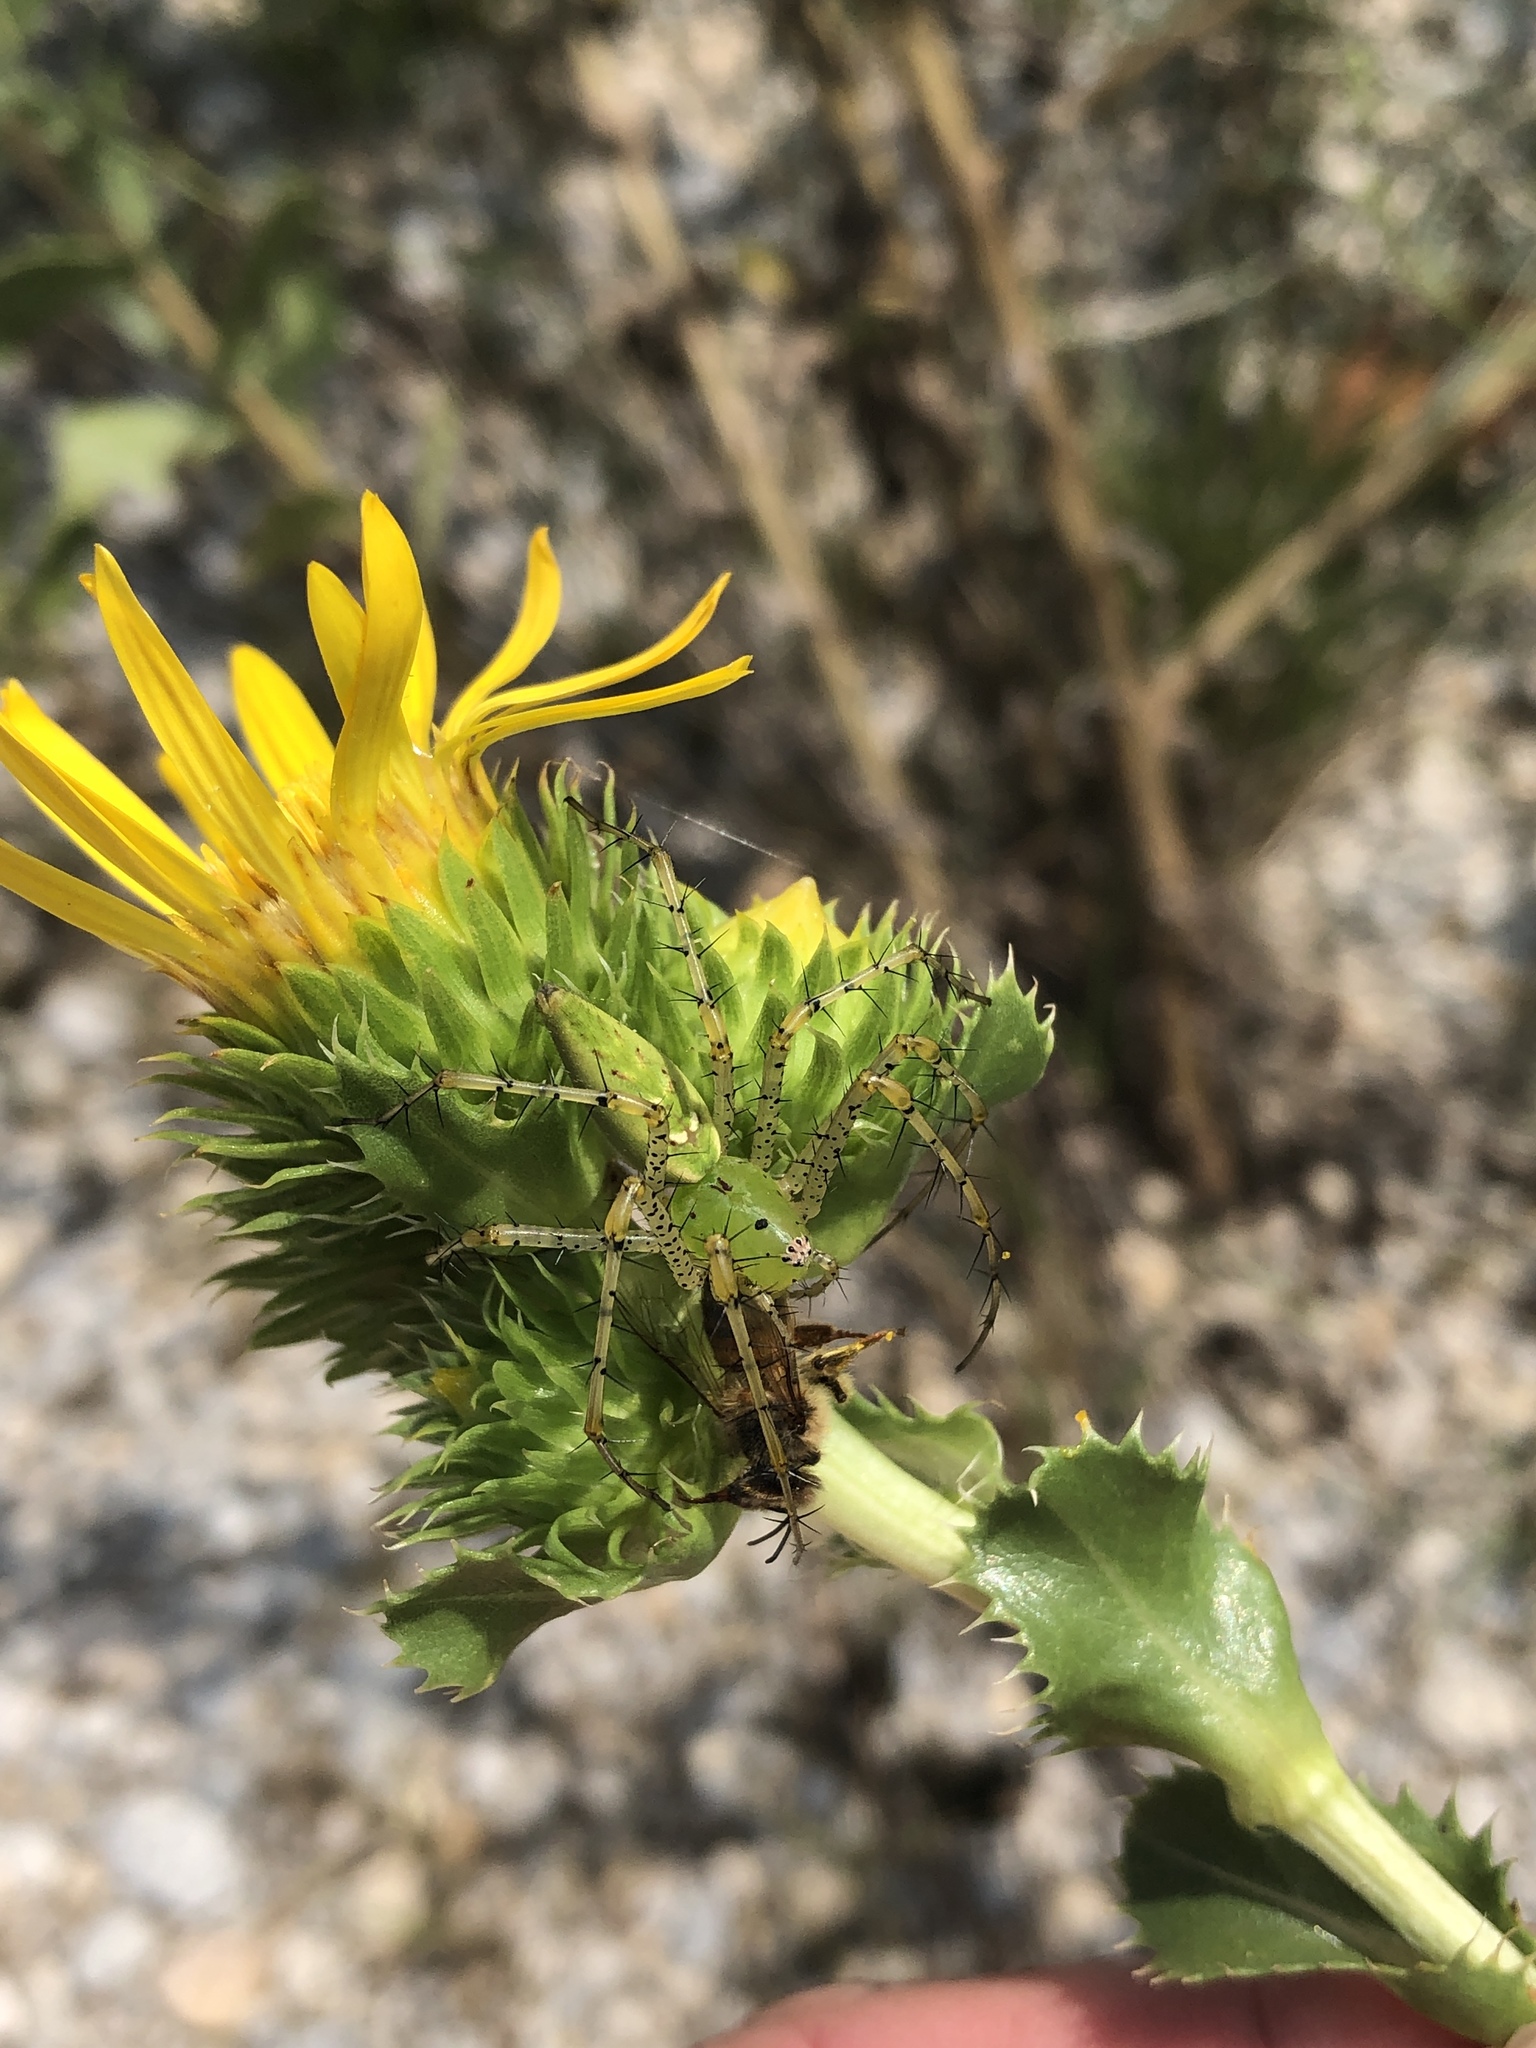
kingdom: Animalia
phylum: Arthropoda
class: Arachnida
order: Araneae
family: Oxyopidae
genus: Peucetia
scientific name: Peucetia viridans
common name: Lynx spiders
